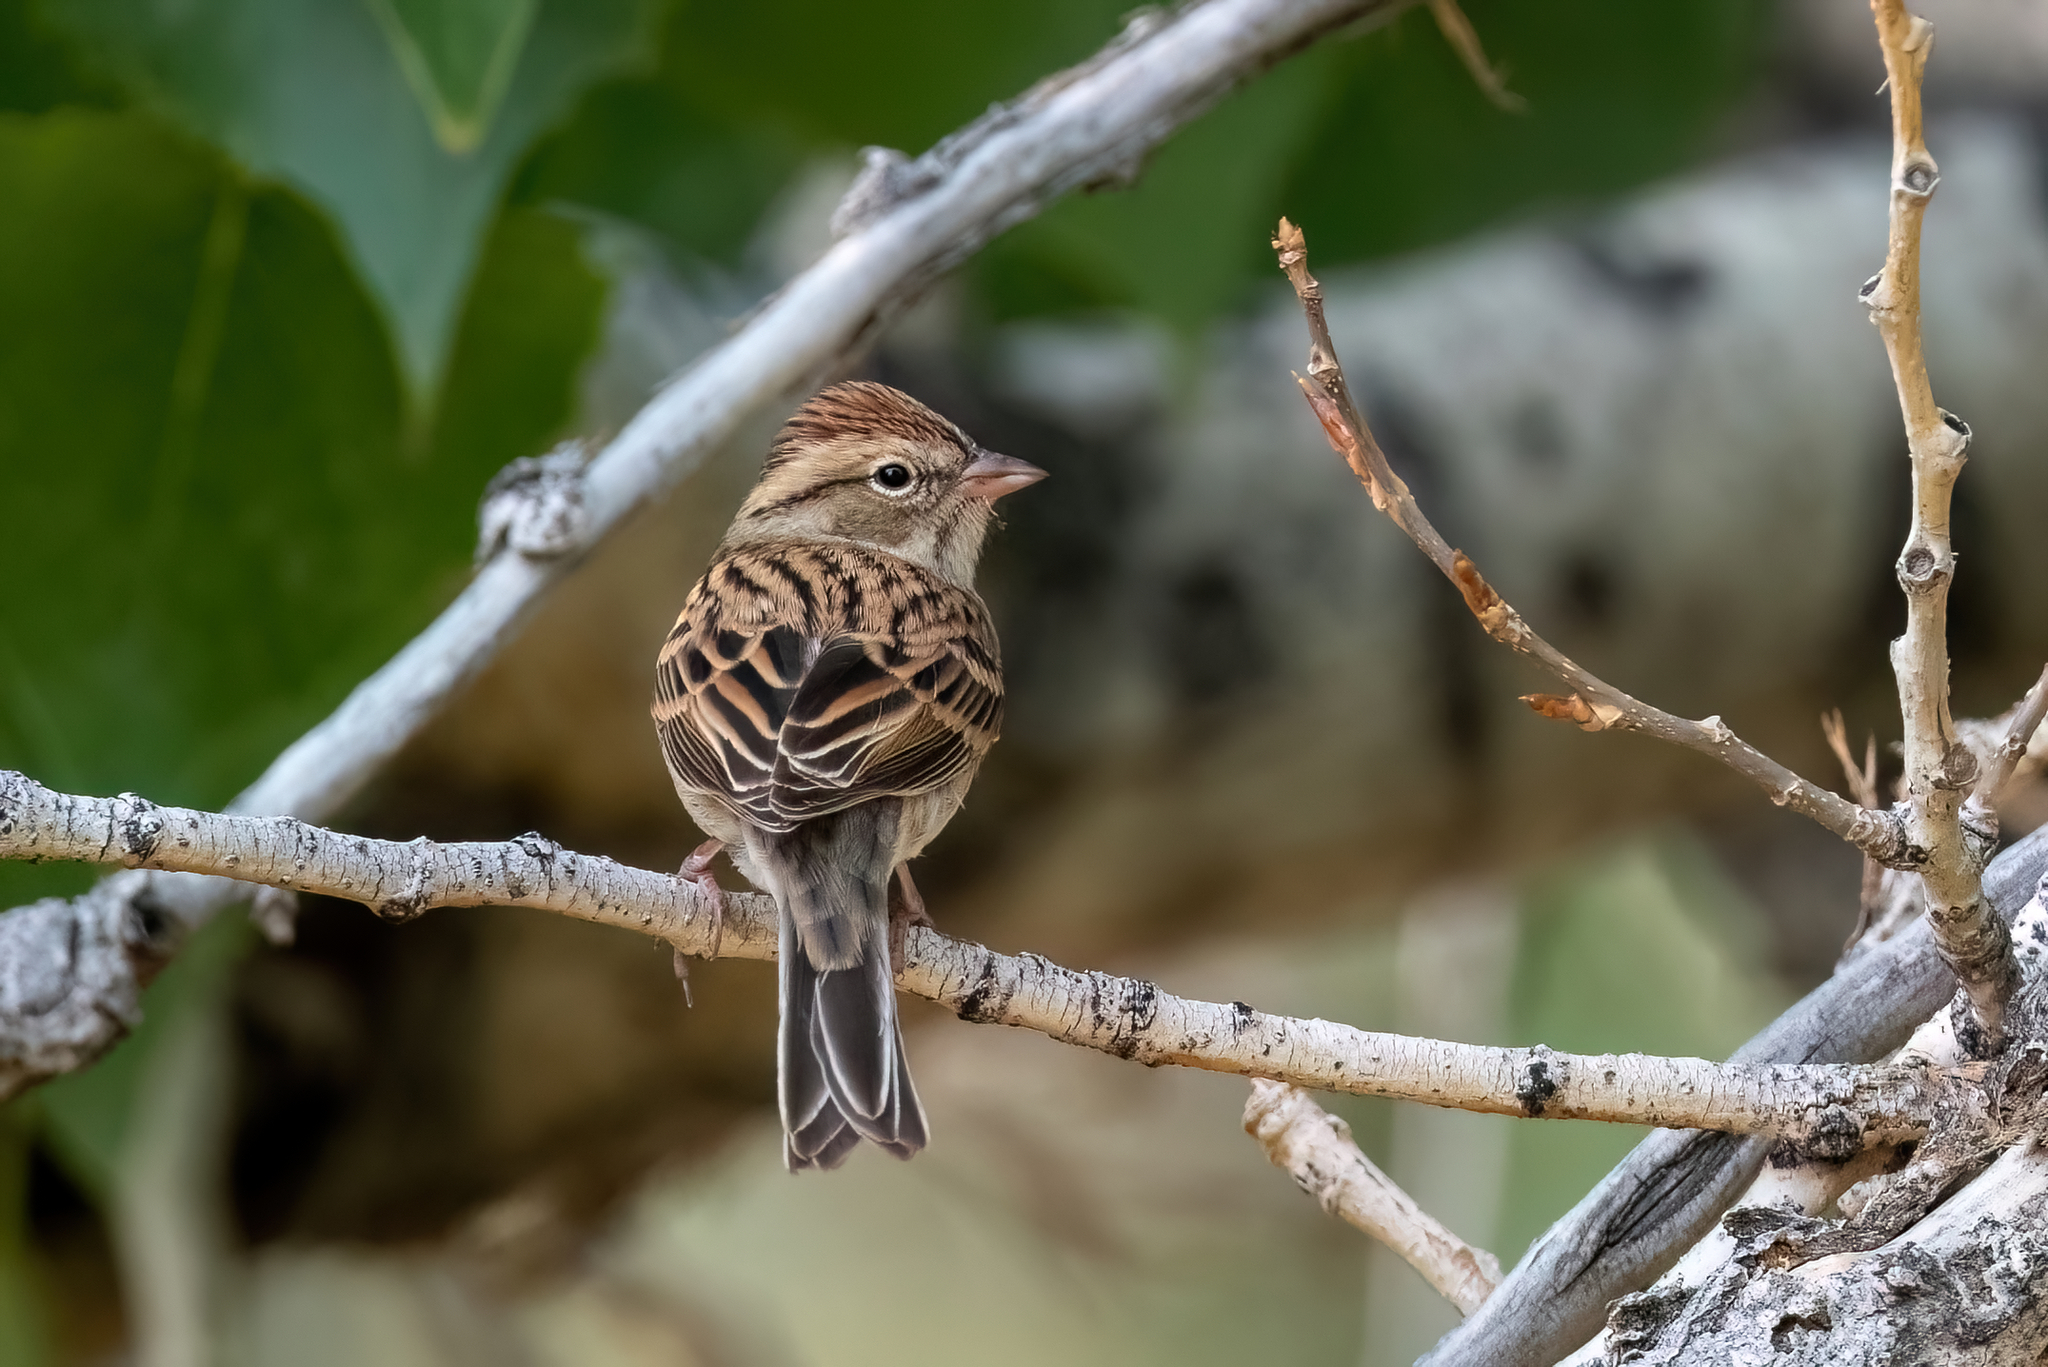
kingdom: Animalia
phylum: Chordata
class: Aves
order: Passeriformes
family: Passerellidae
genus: Spizella
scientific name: Spizella passerina
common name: Chipping sparrow
